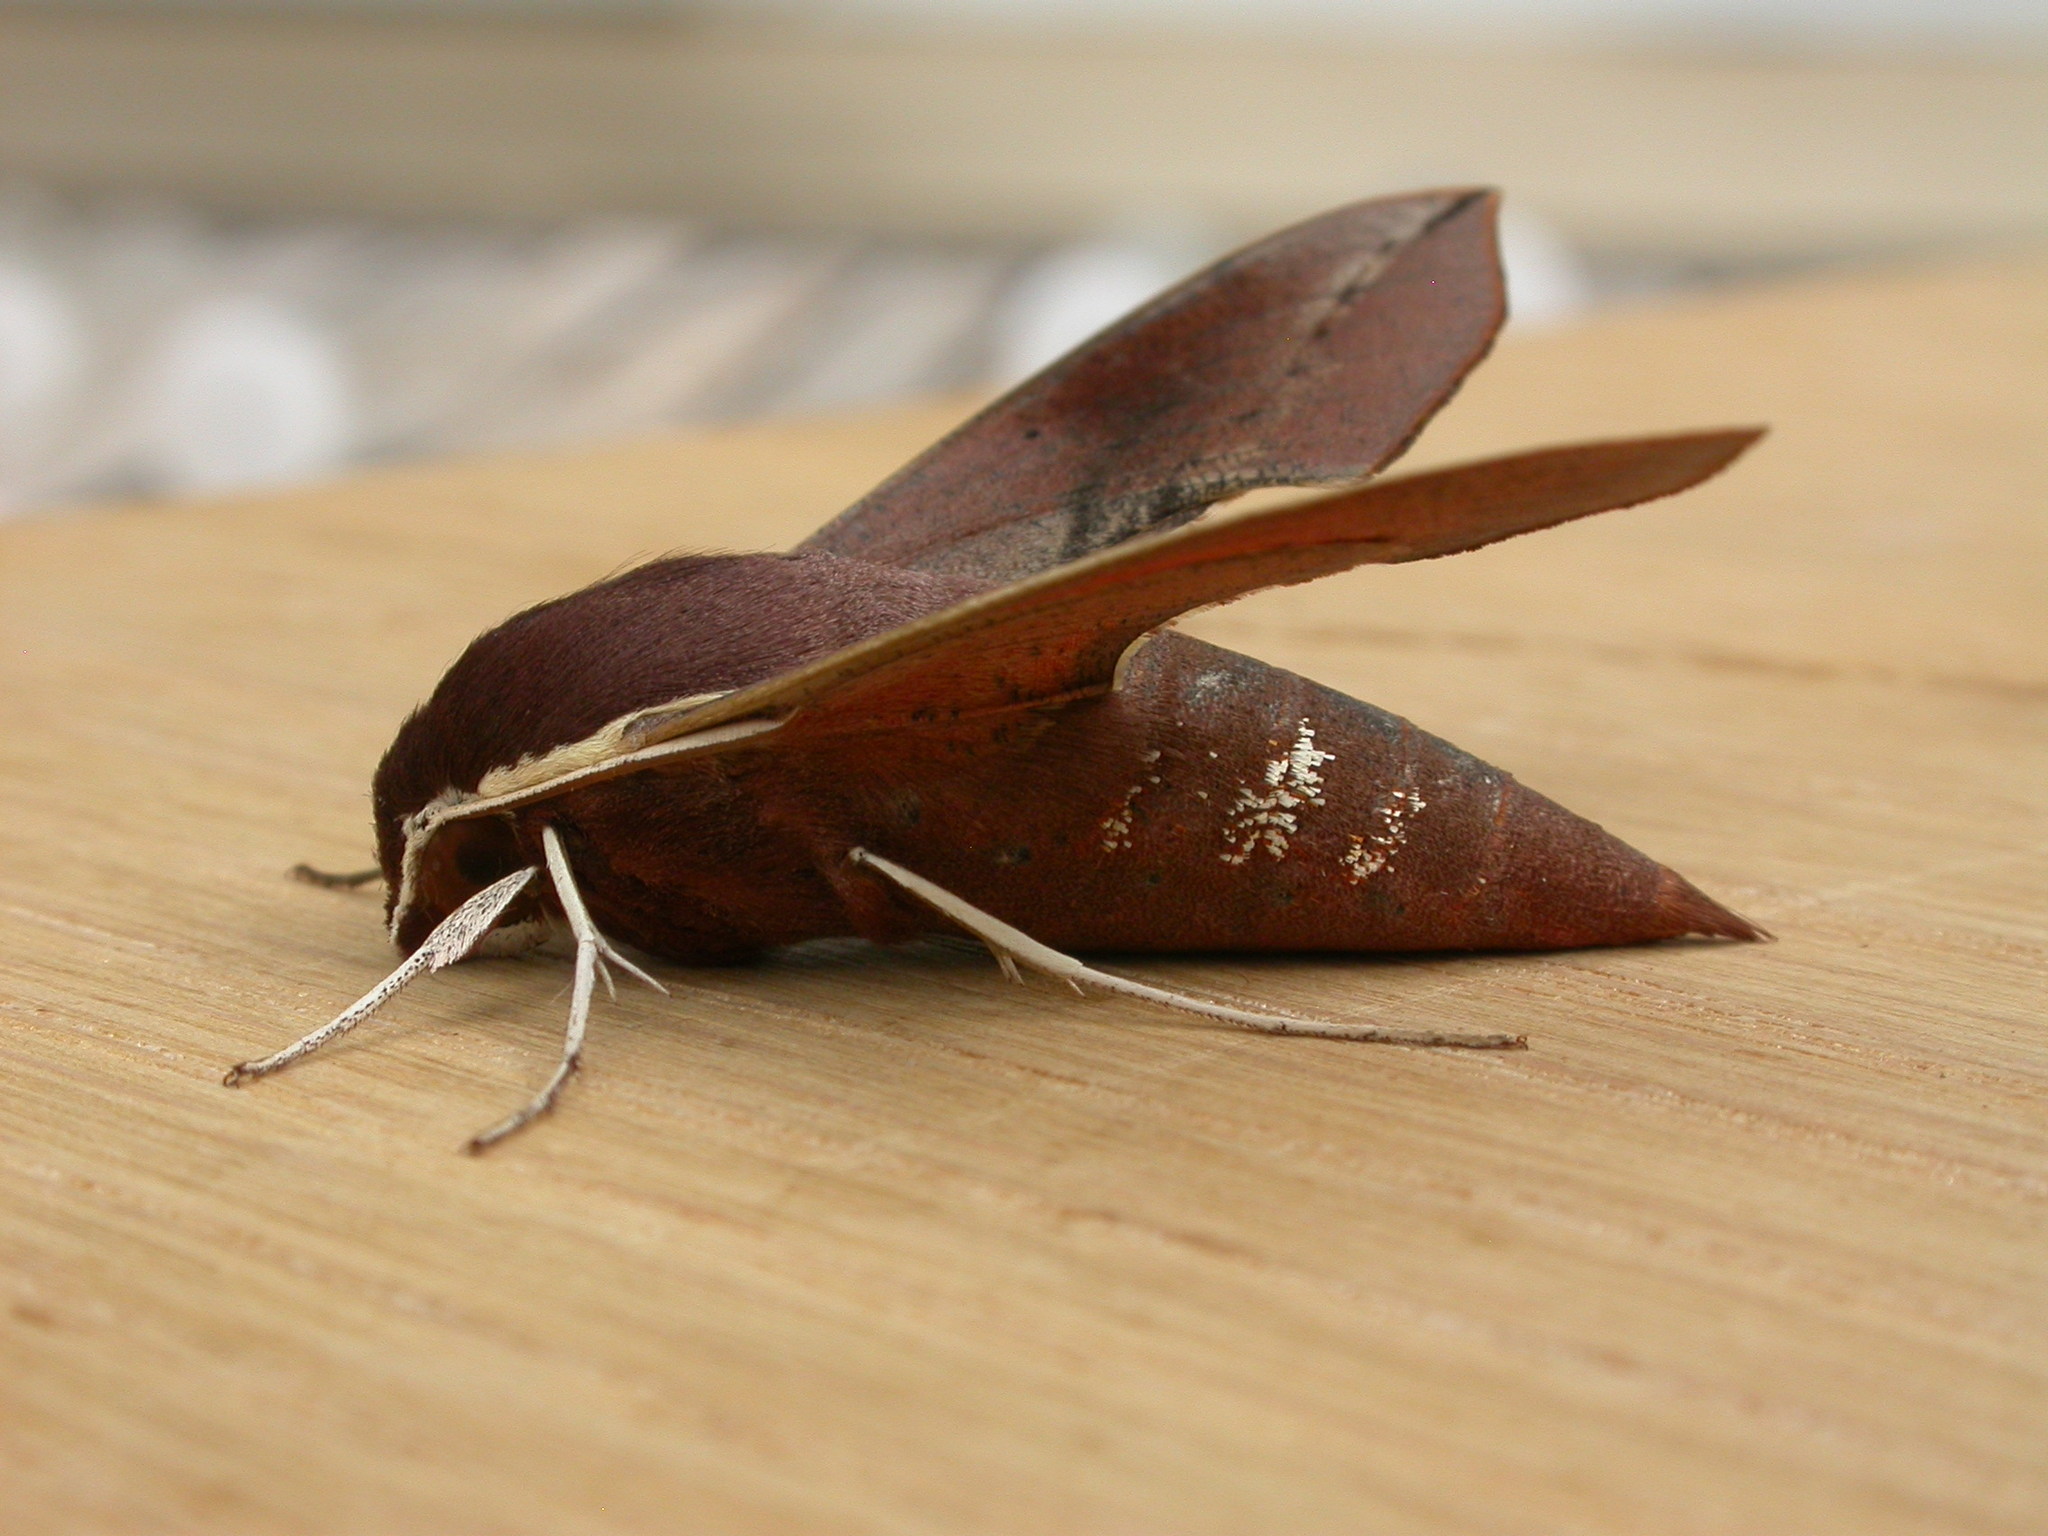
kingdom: Animalia
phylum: Arthropoda
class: Insecta
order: Lepidoptera
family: Sphingidae
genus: Hippotion
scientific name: Hippotion scrofa
